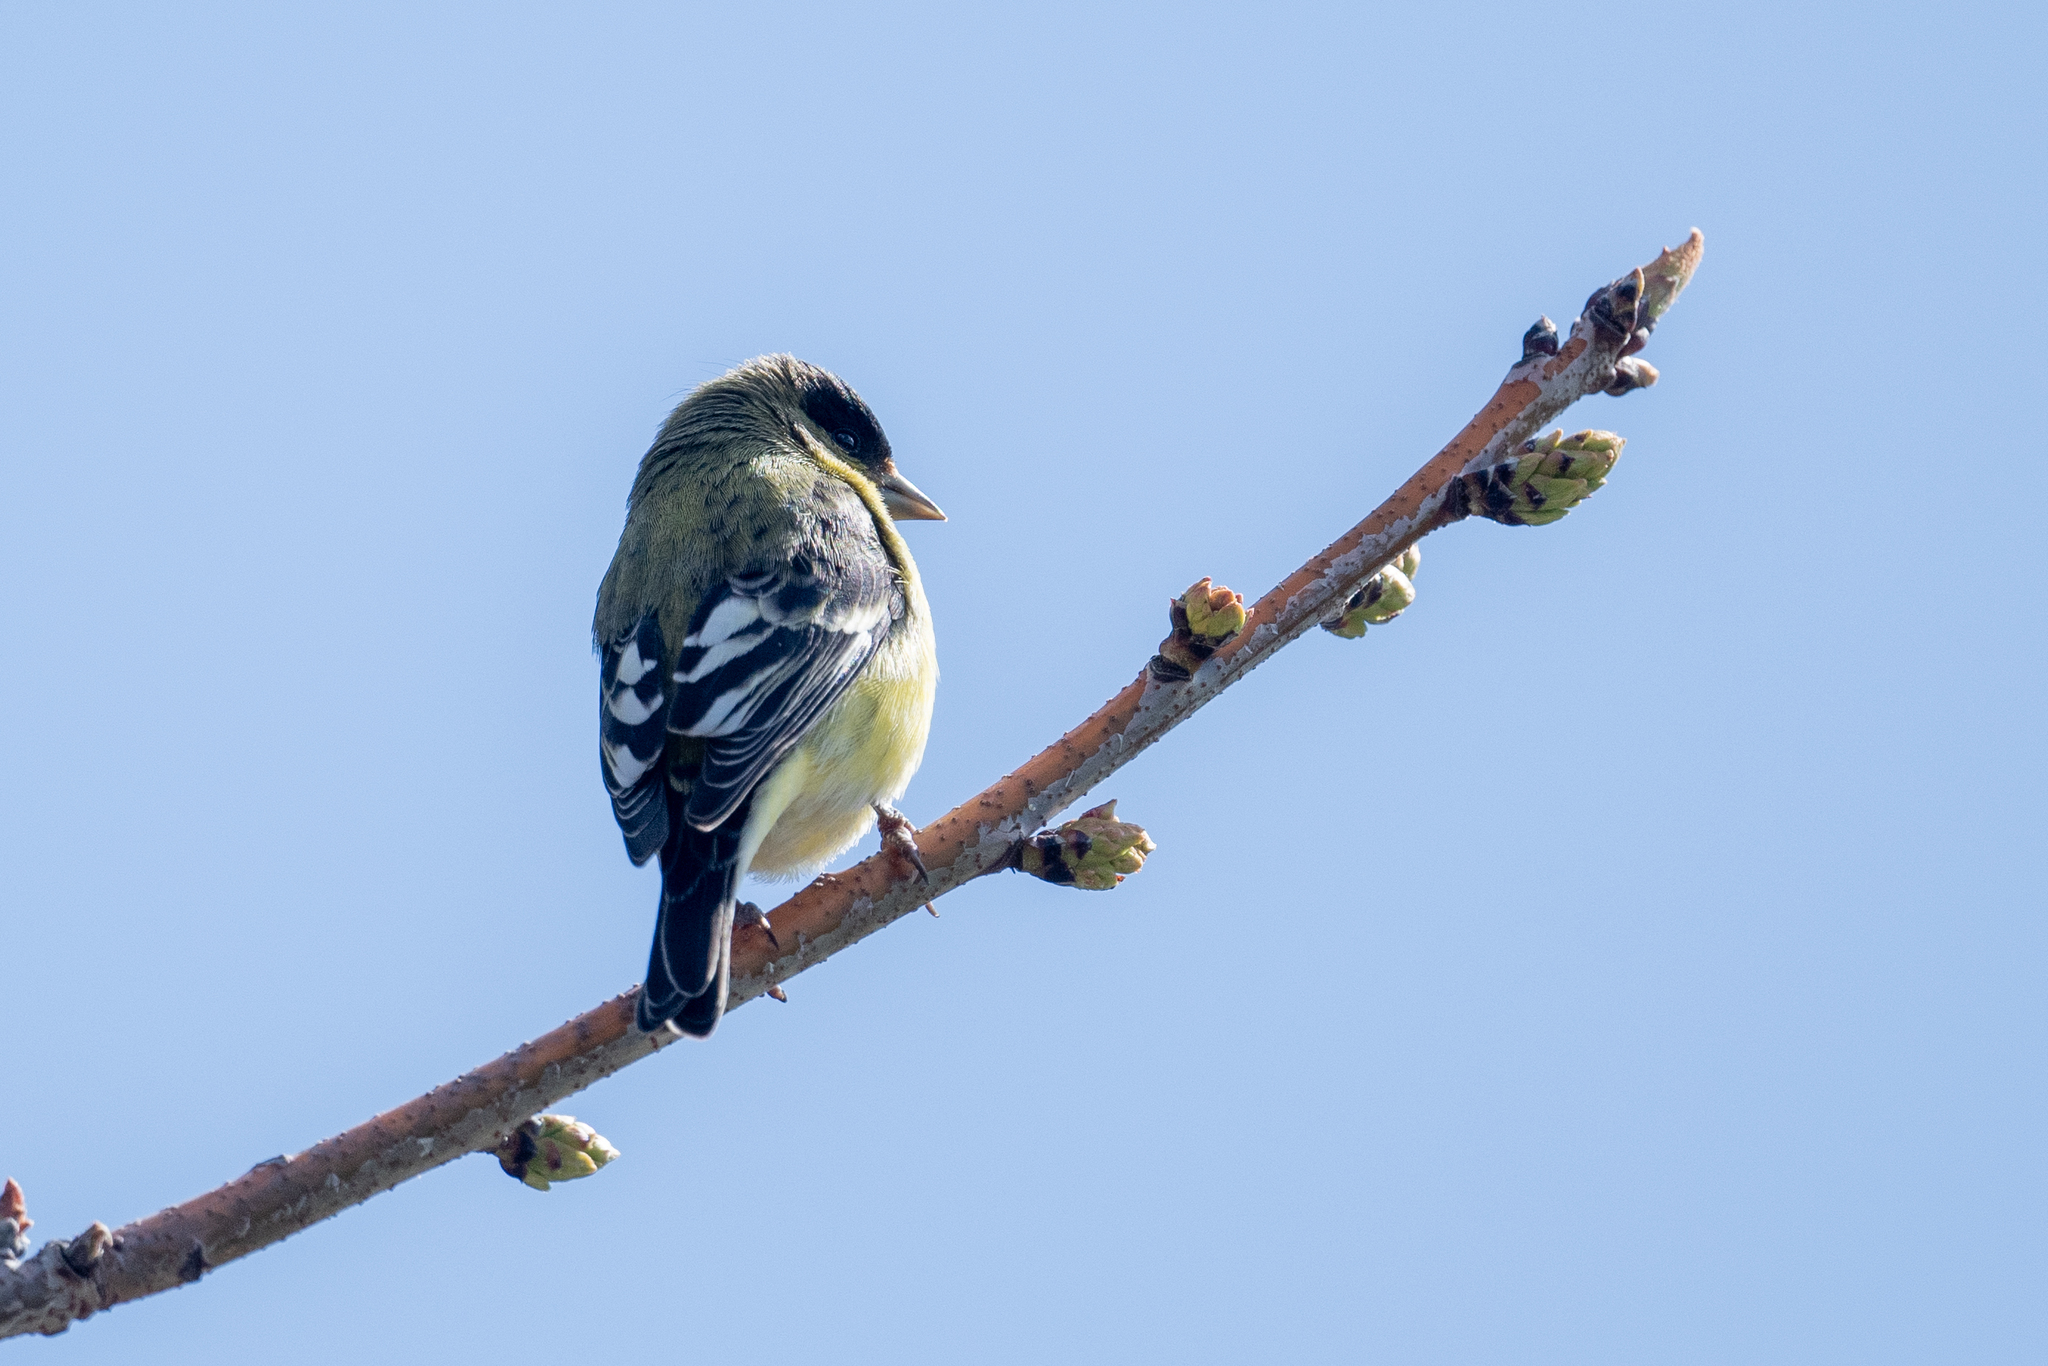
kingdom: Animalia
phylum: Chordata
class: Aves
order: Passeriformes
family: Fringillidae
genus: Spinus
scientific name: Spinus psaltria
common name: Lesser goldfinch
